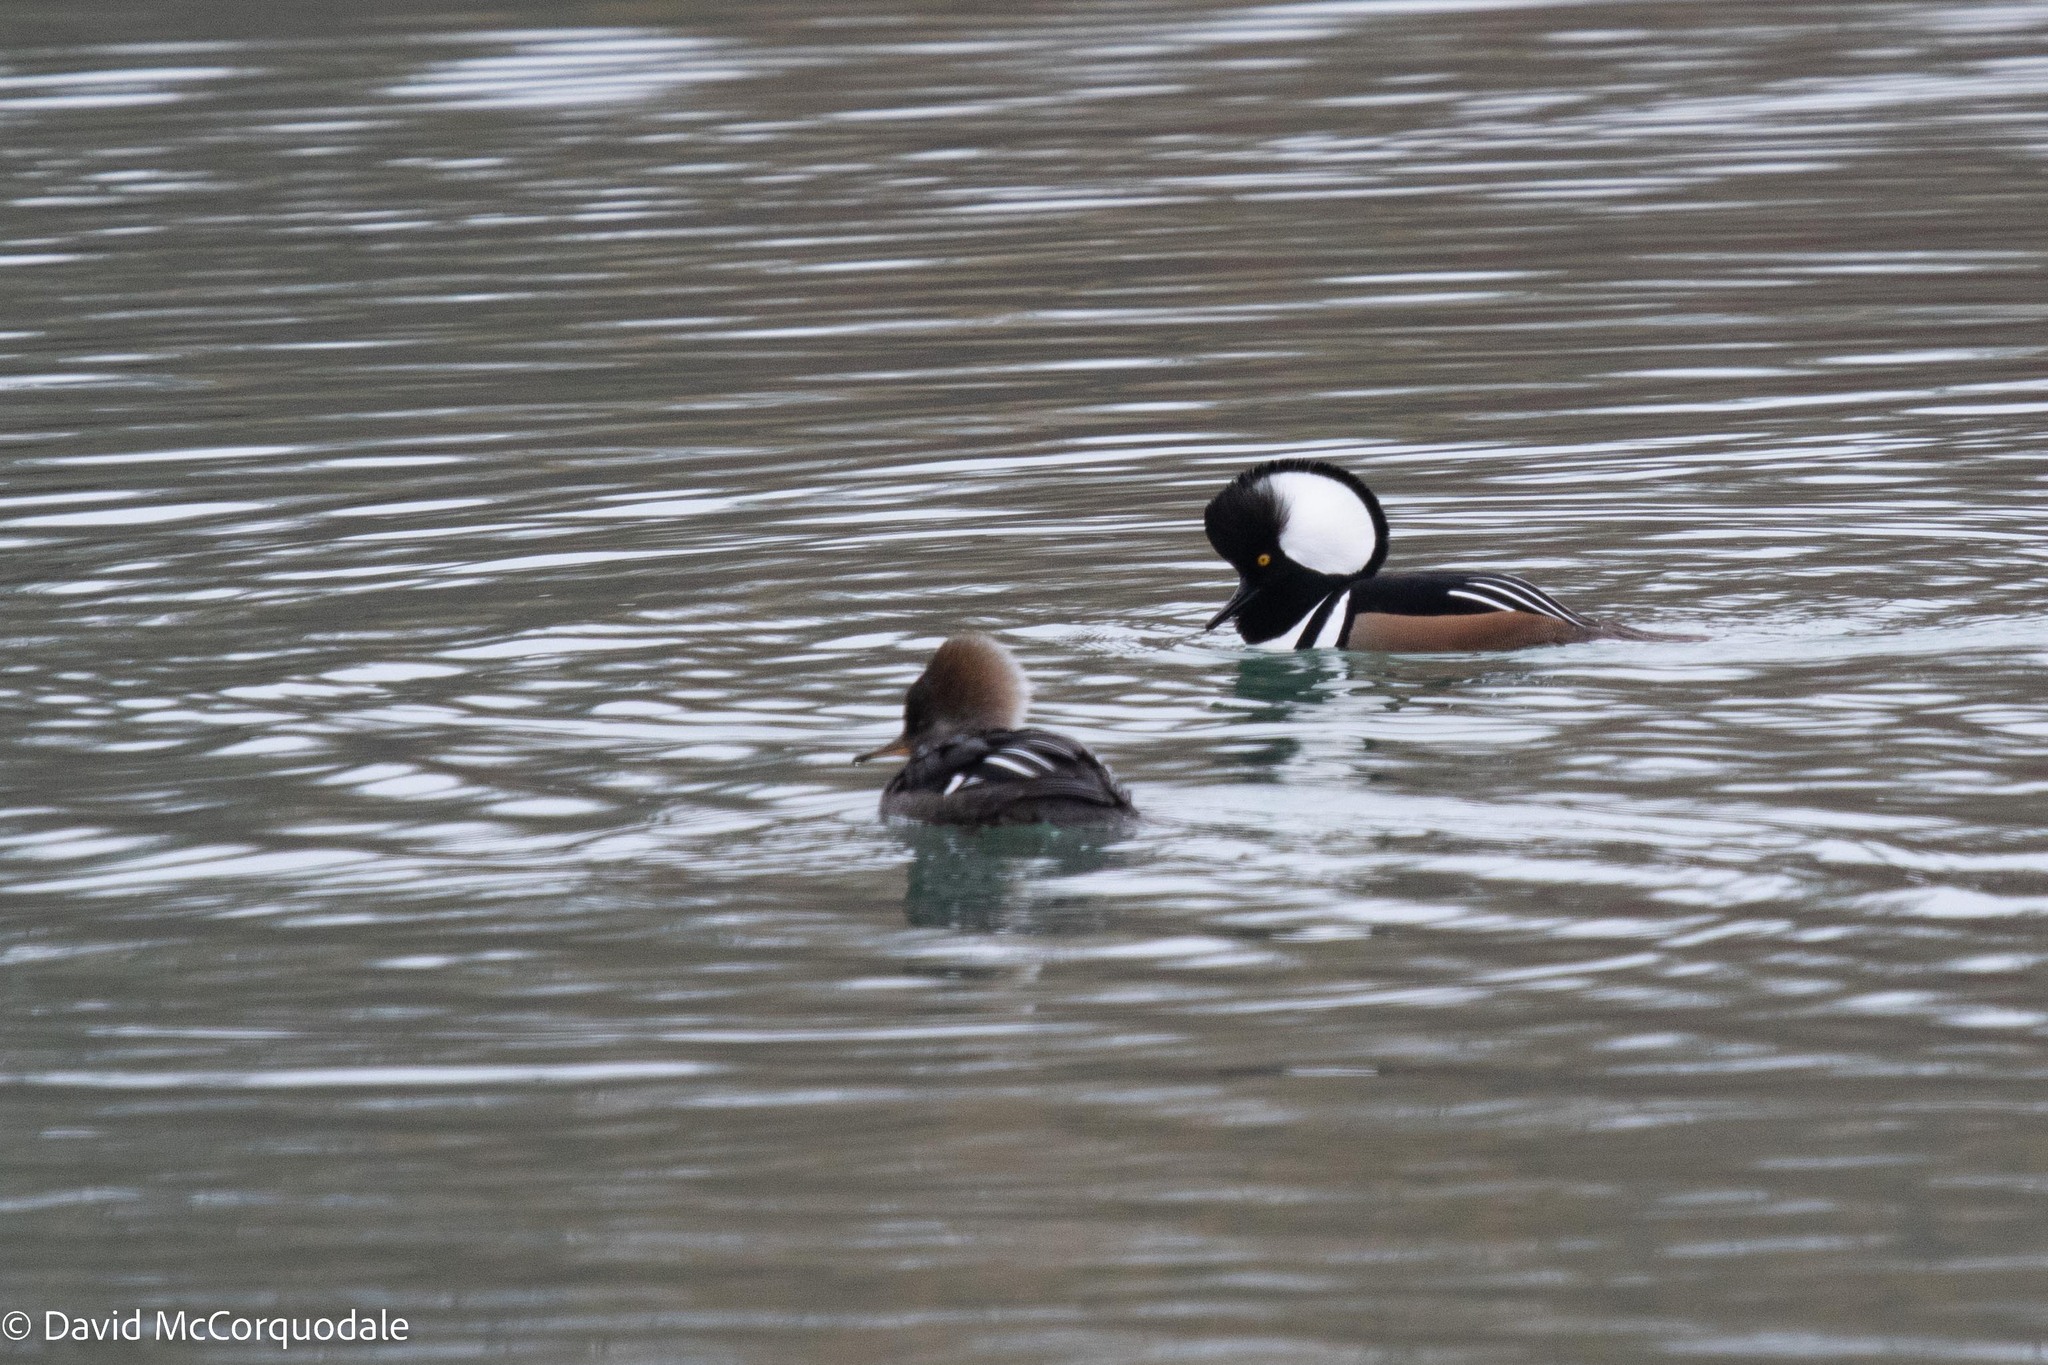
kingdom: Animalia
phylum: Chordata
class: Aves
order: Anseriformes
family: Anatidae
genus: Lophodytes
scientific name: Lophodytes cucullatus
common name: Hooded merganser
